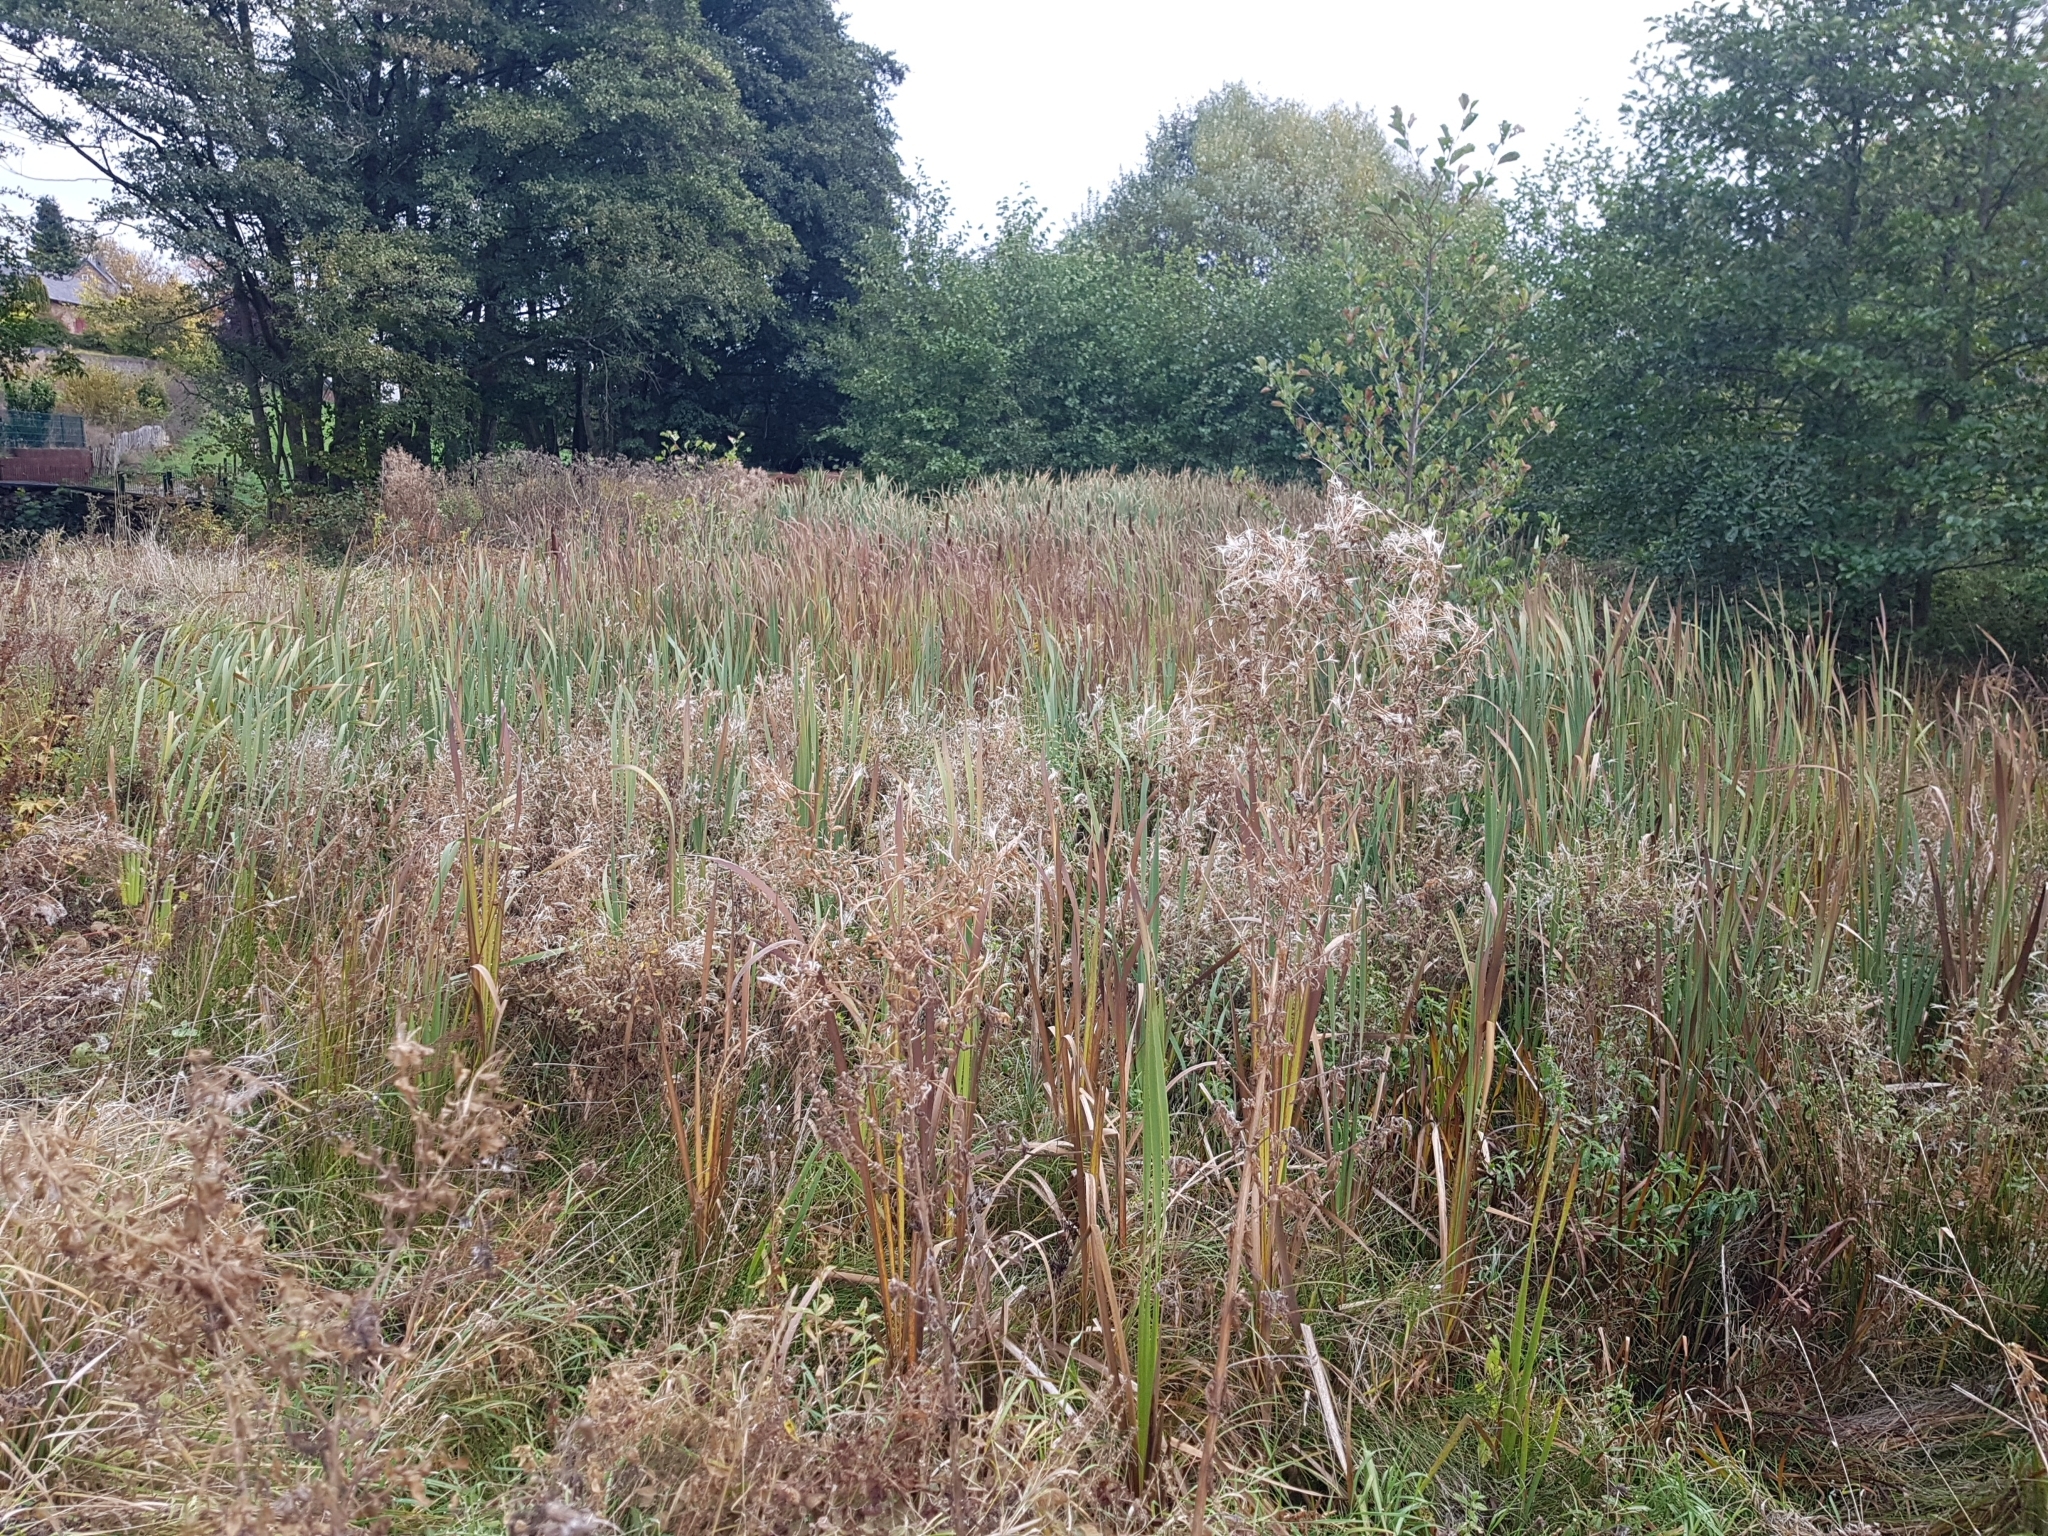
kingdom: Plantae
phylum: Tracheophyta
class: Liliopsida
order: Poales
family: Typhaceae
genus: Typha
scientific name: Typha latifolia
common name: Broadleaf cattail
